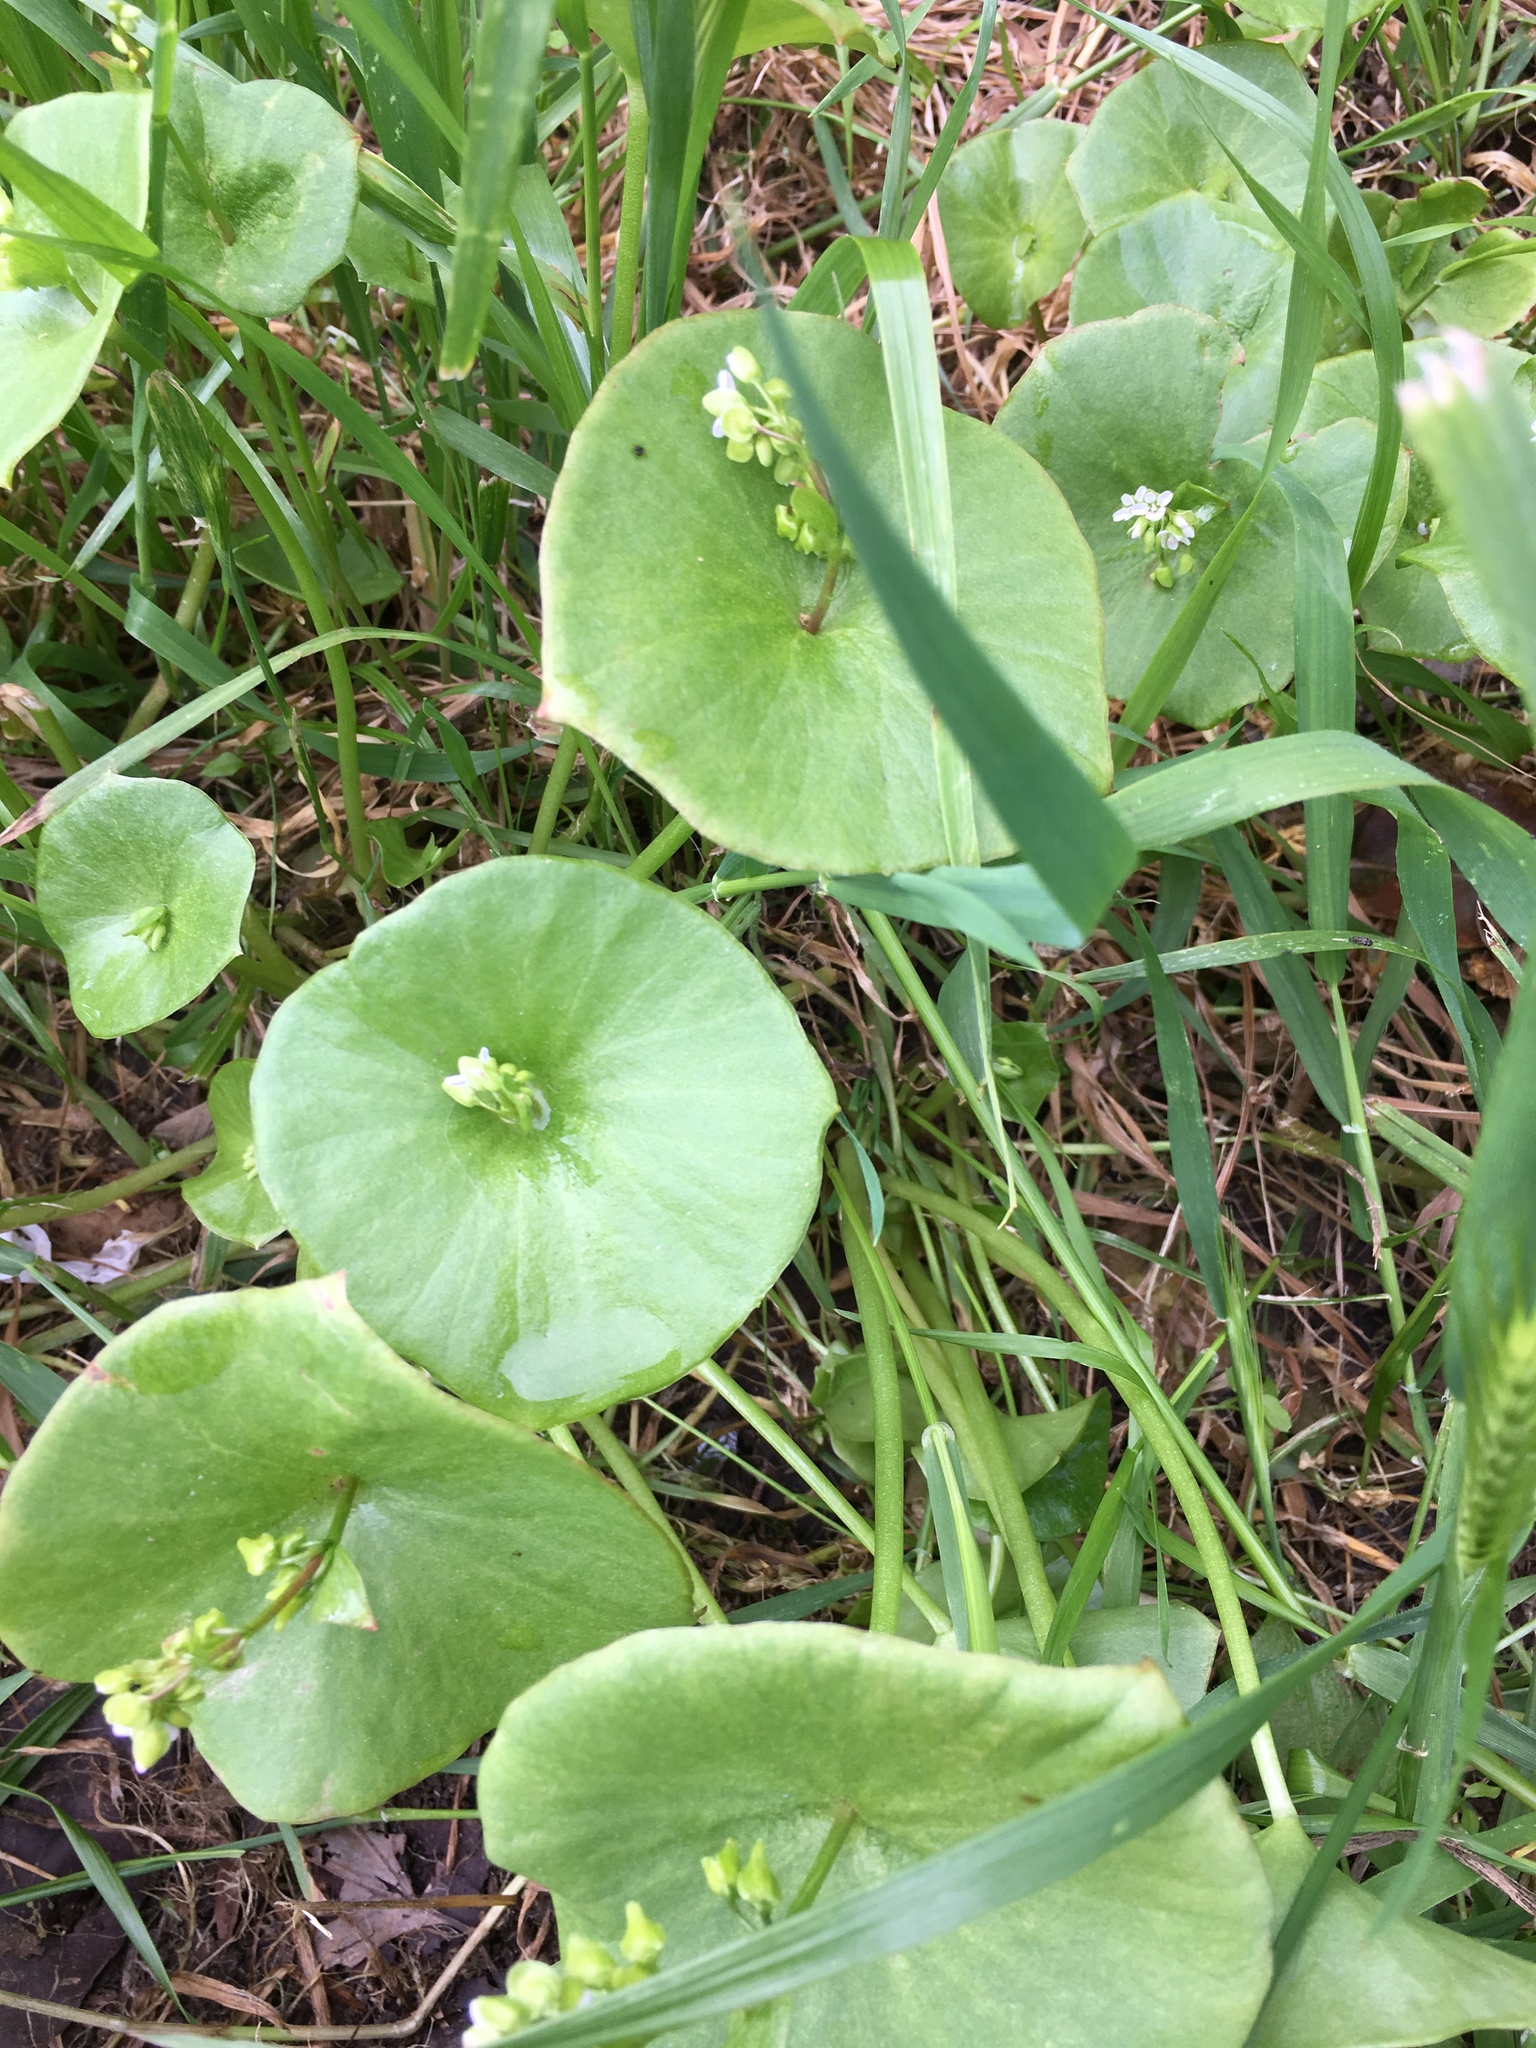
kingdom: Plantae
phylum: Tracheophyta
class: Magnoliopsida
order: Caryophyllales
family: Montiaceae
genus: Claytonia
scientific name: Claytonia perfoliata
